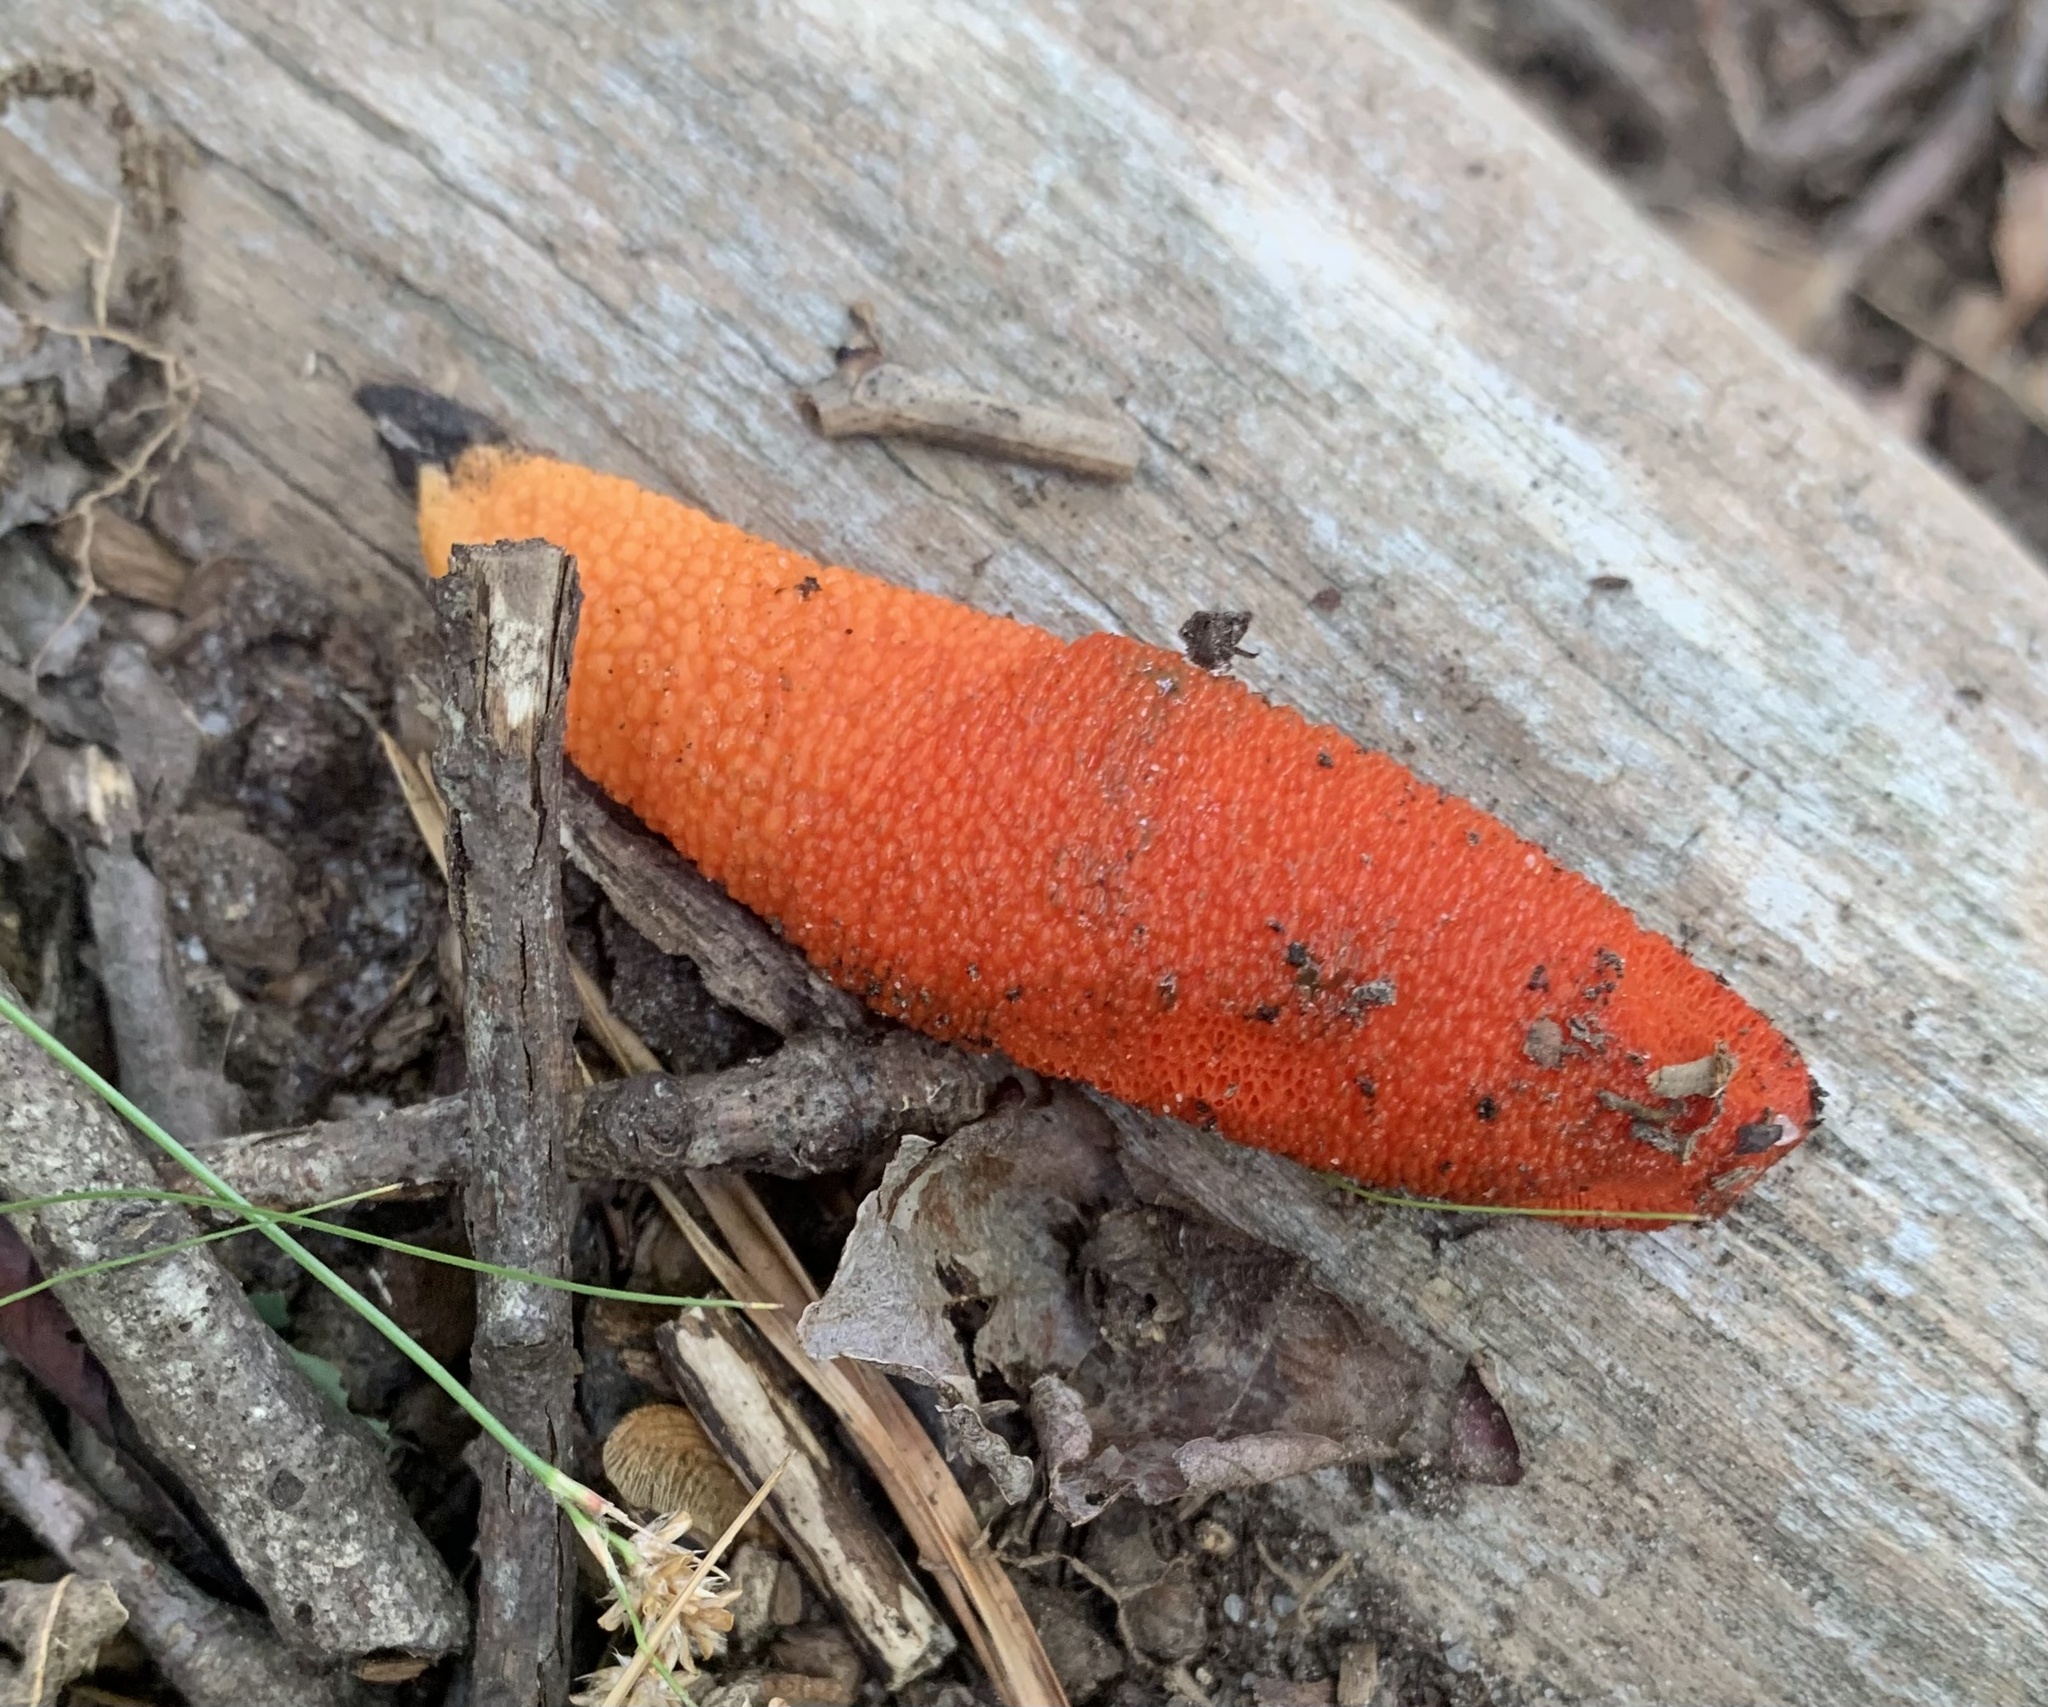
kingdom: Fungi
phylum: Basidiomycota
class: Agaricomycetes
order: Phallales
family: Phallaceae
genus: Mutinus
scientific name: Mutinus elegans
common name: Devil's dipstick
